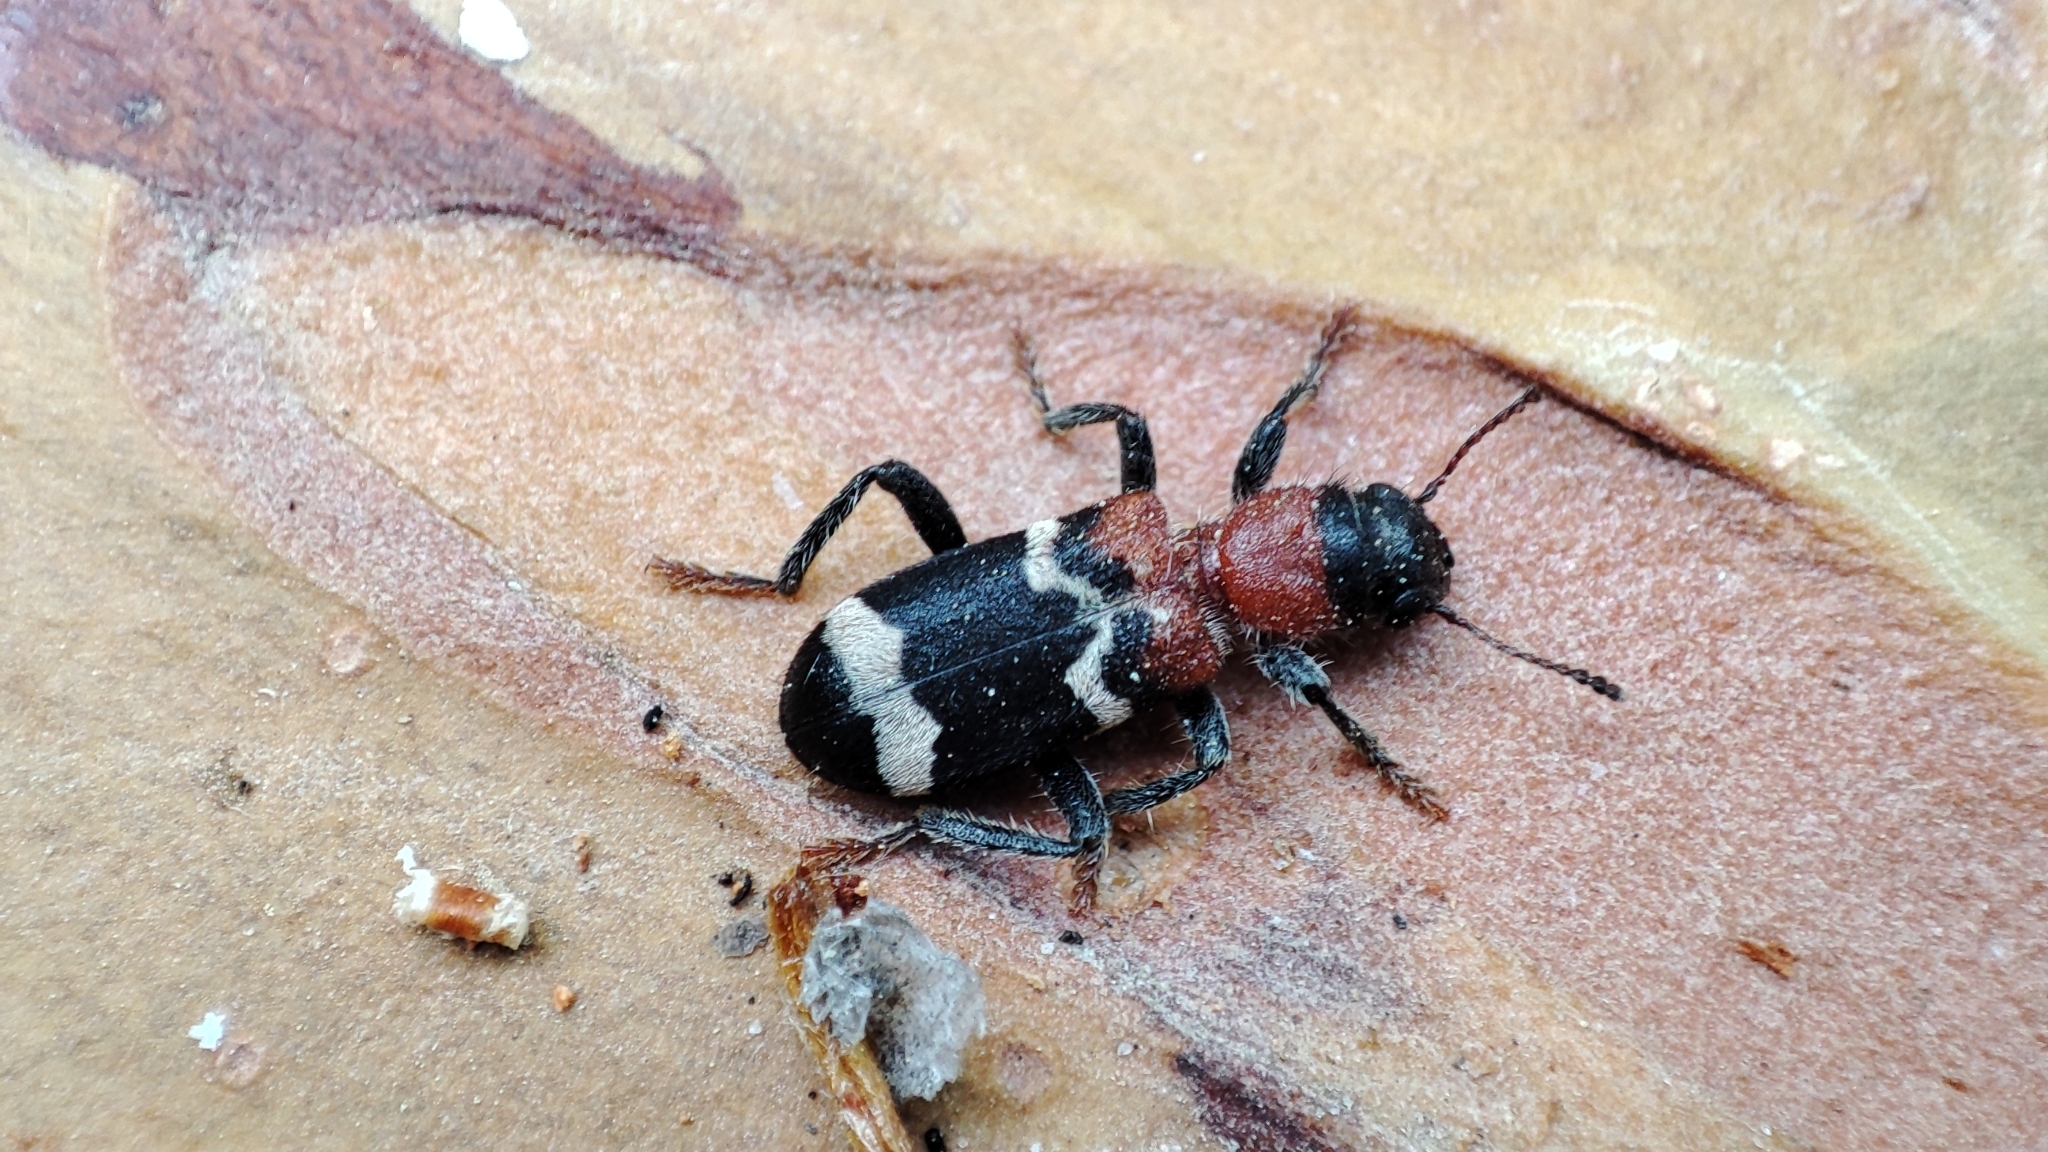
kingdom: Animalia
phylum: Arthropoda
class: Insecta
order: Coleoptera
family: Cleridae
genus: Thanasimus
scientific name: Thanasimus formicarius
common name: Ant beetle
